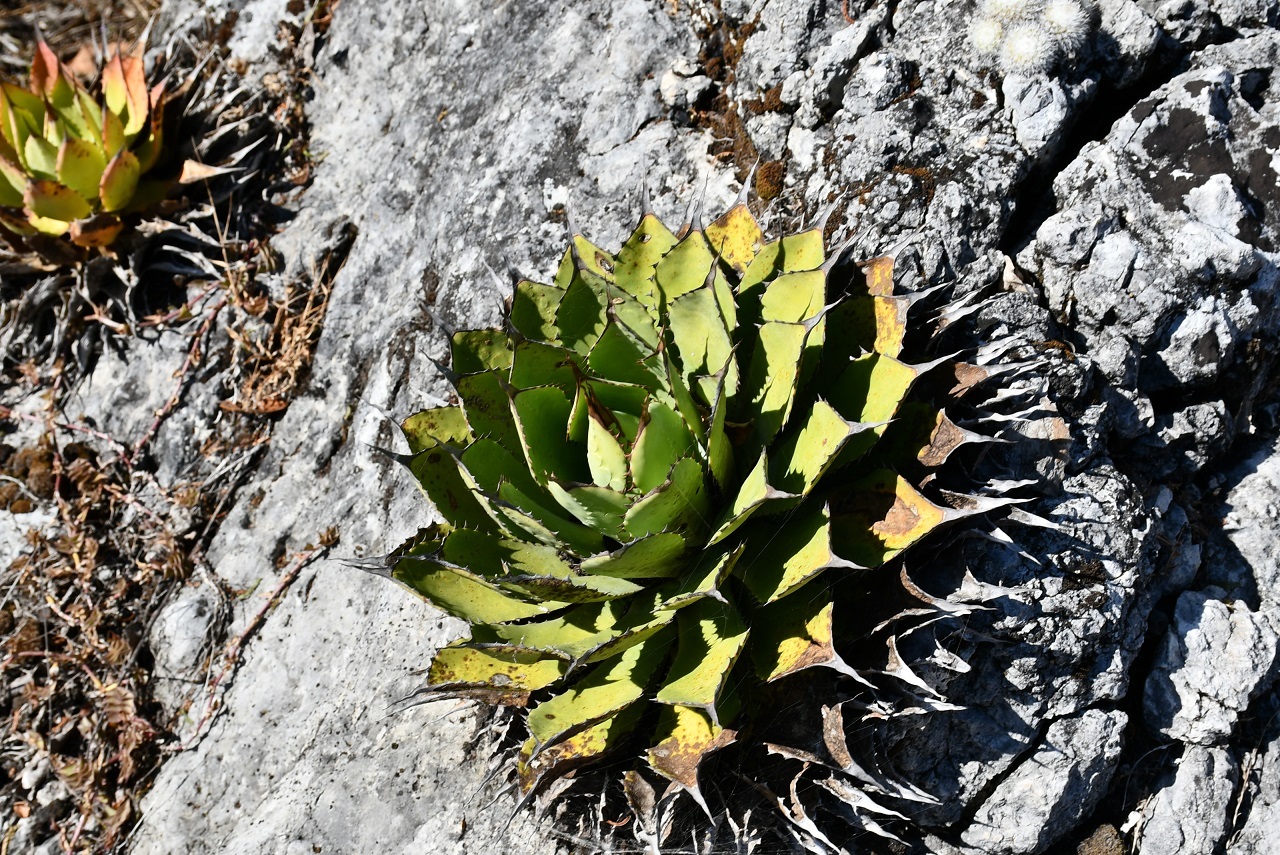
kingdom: Plantae
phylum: Tracheophyta
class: Liliopsida
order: Asparagales
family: Asparagaceae
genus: Agave
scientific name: Agave congesta
